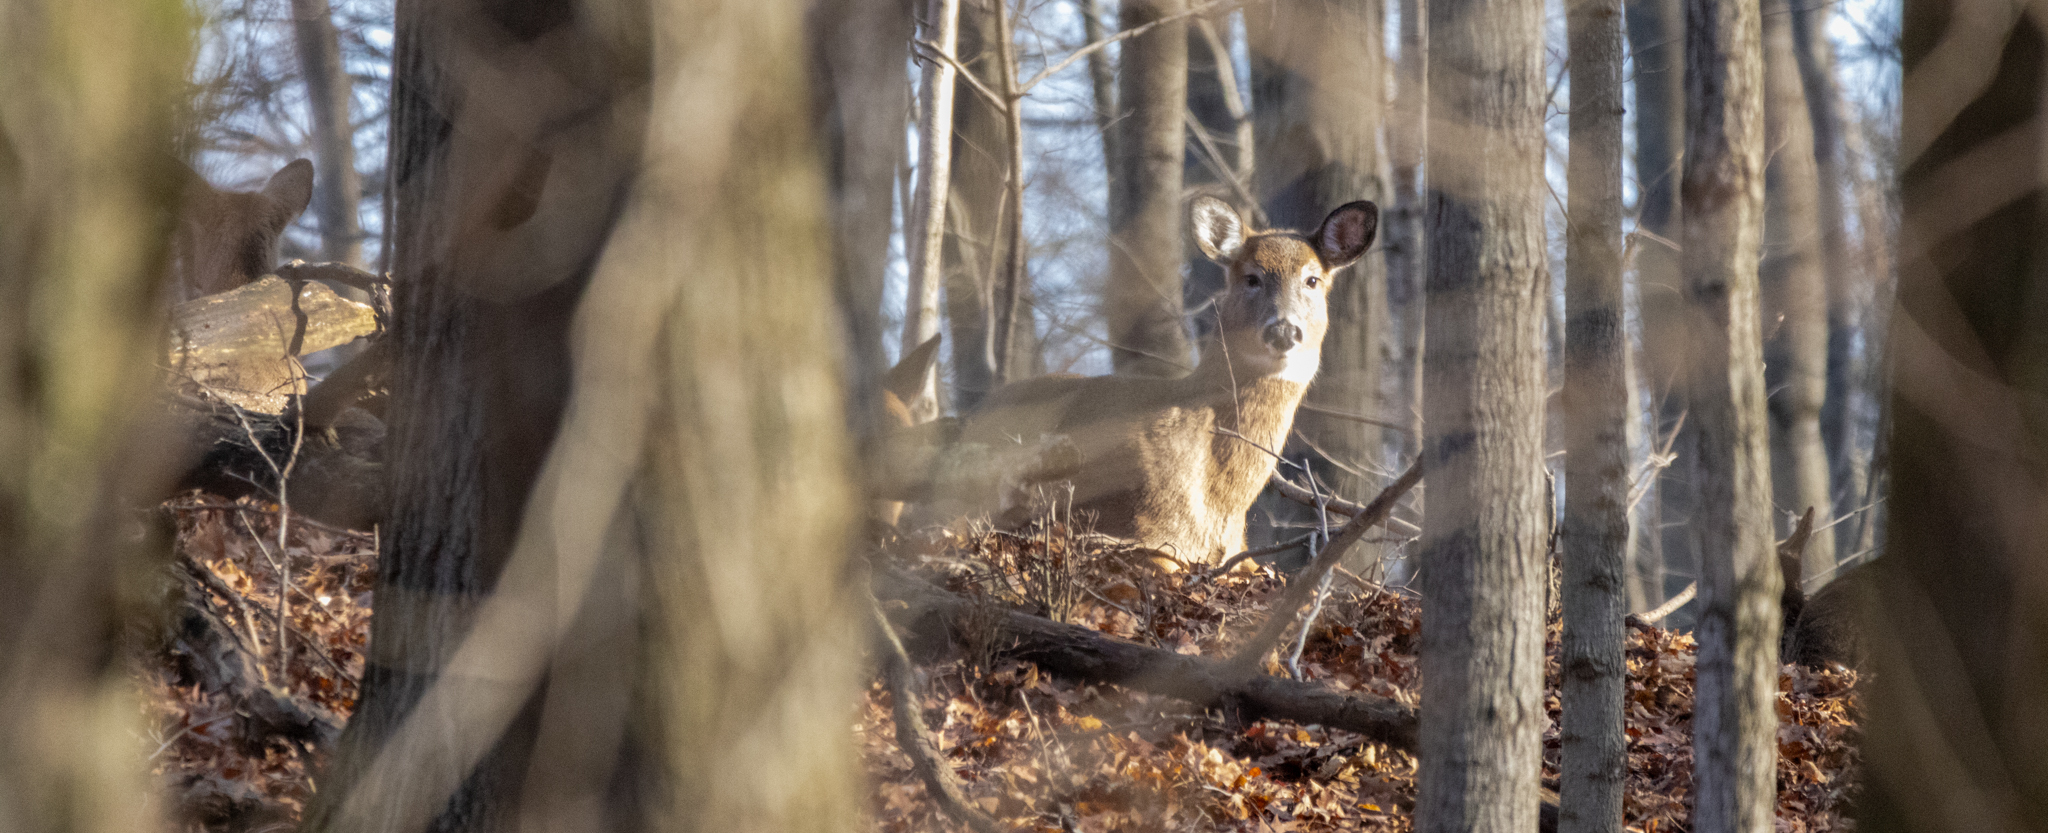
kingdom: Animalia
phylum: Chordata
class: Mammalia
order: Artiodactyla
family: Cervidae
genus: Odocoileus
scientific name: Odocoileus virginianus
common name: White-tailed deer
